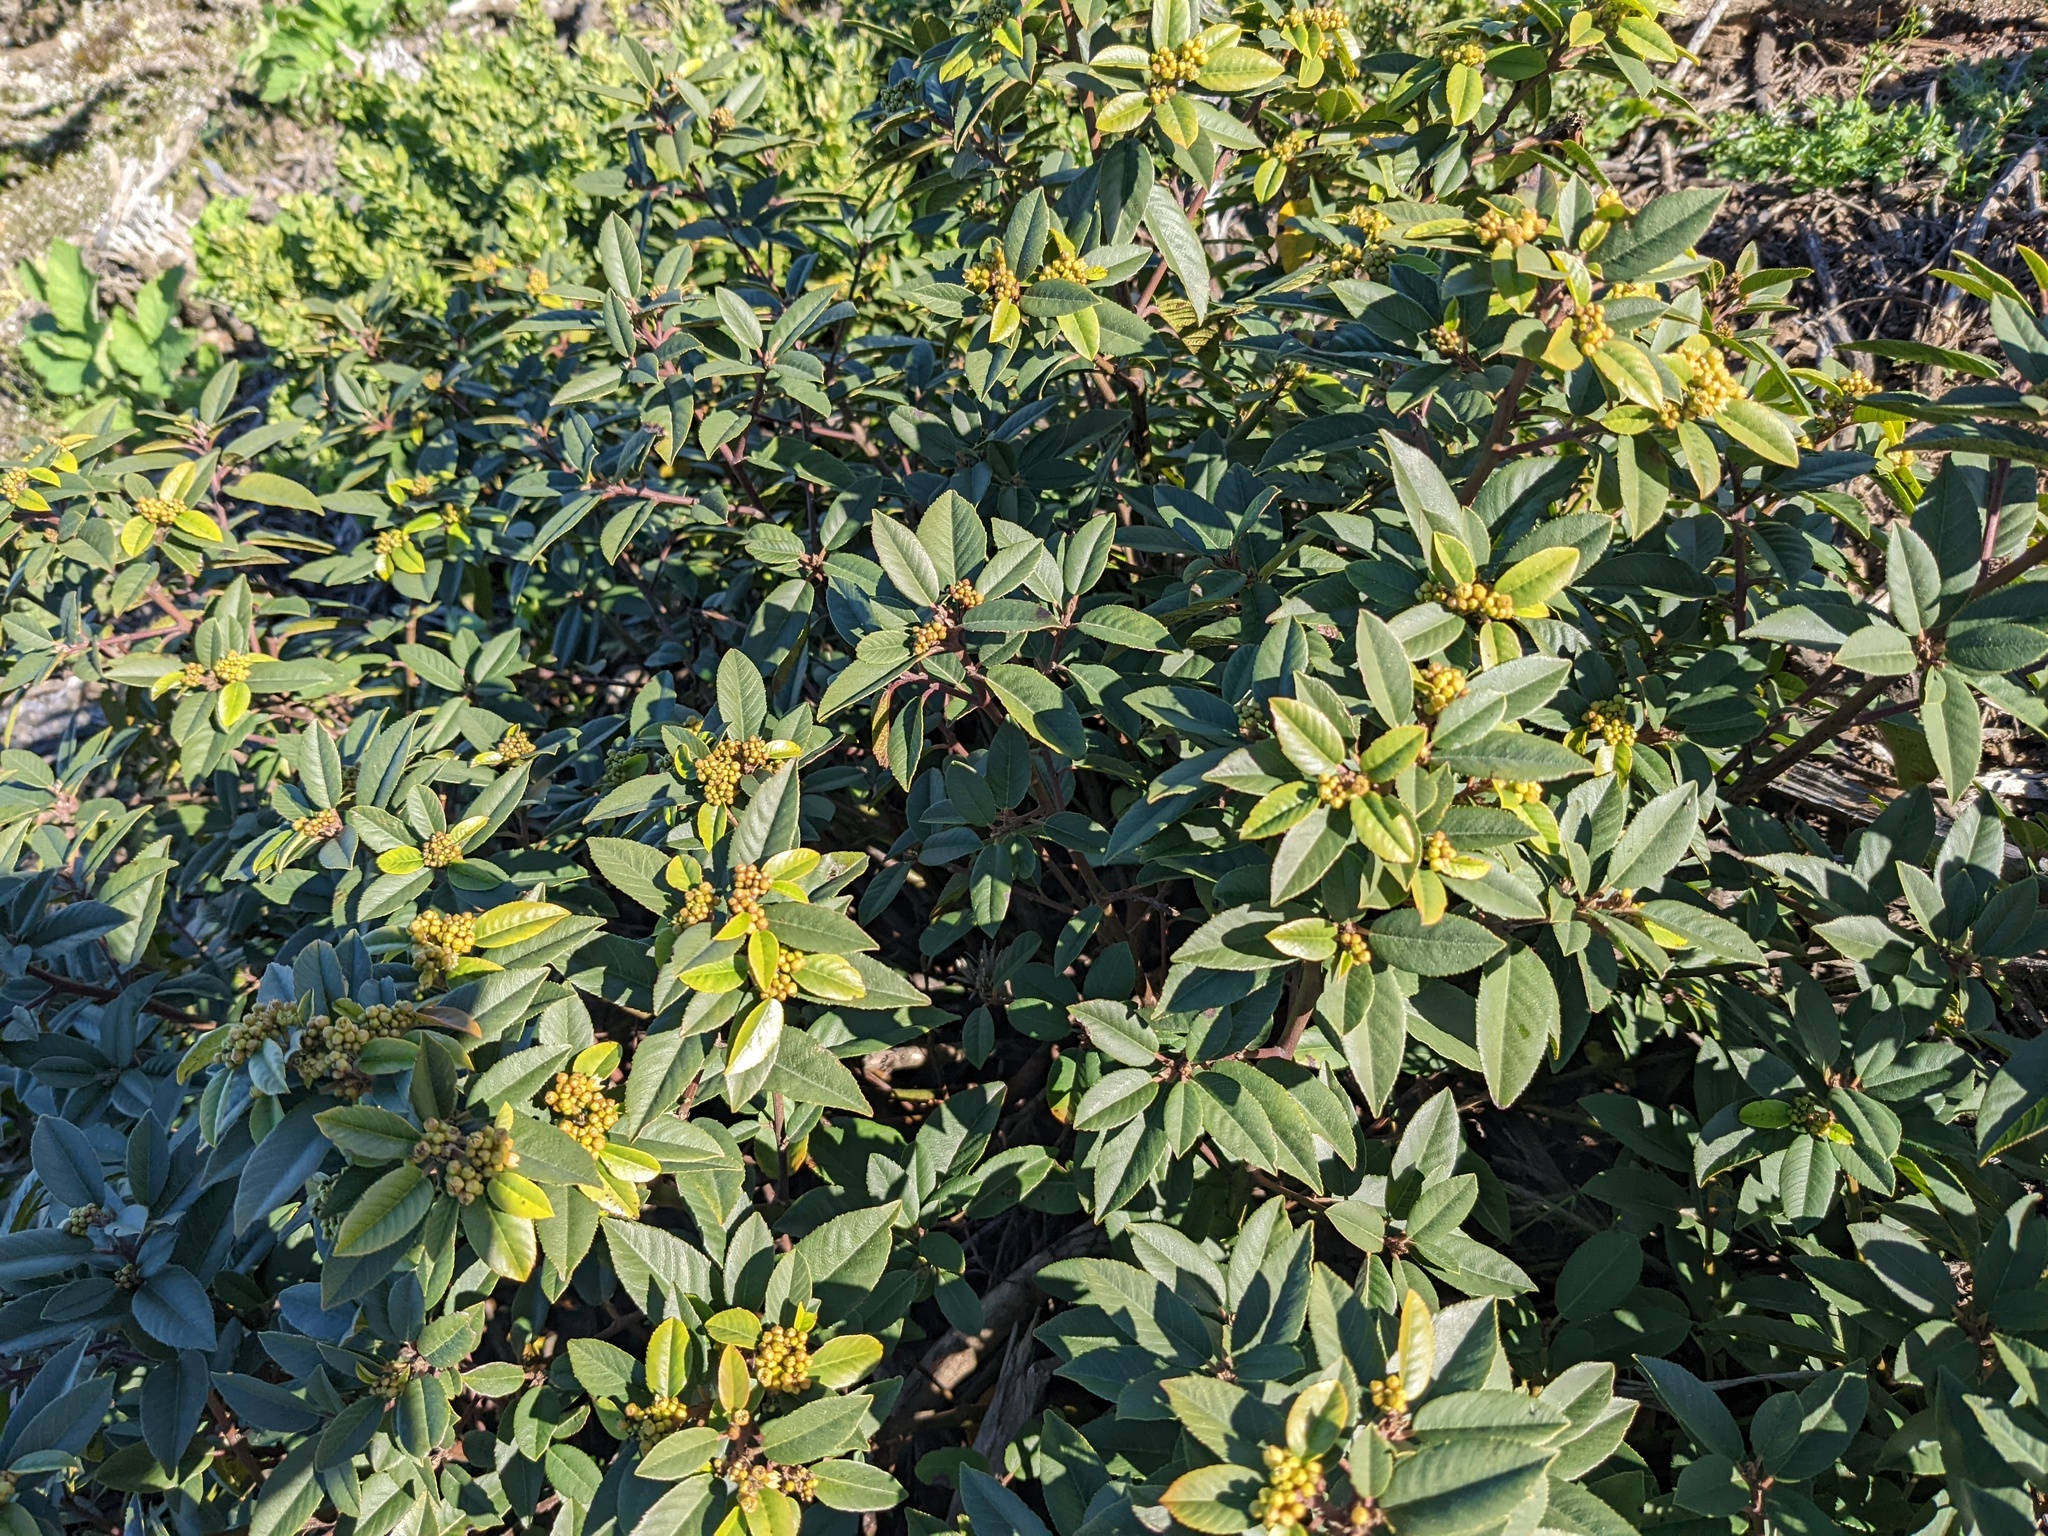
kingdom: Plantae
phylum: Tracheophyta
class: Magnoliopsida
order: Rosales
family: Rhamnaceae
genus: Frangula
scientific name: Frangula californica
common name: California buckthorn
